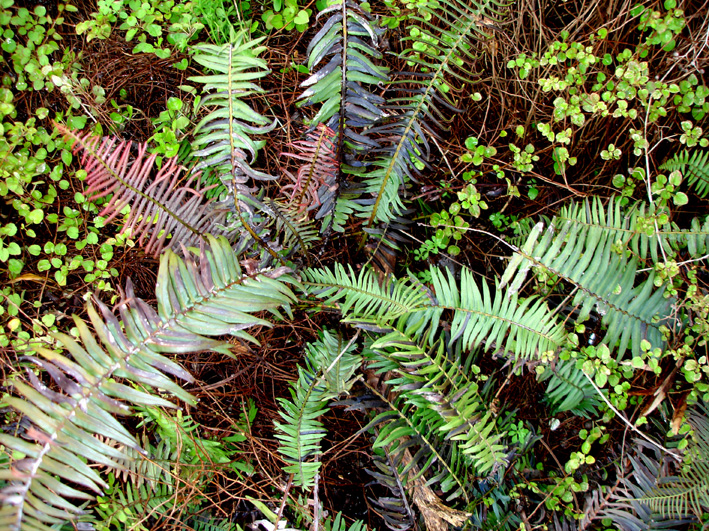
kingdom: Plantae
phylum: Tracheophyta
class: Polypodiopsida
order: Polypodiales
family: Blechnaceae
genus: Blechnum
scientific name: Blechnum punctulatum
